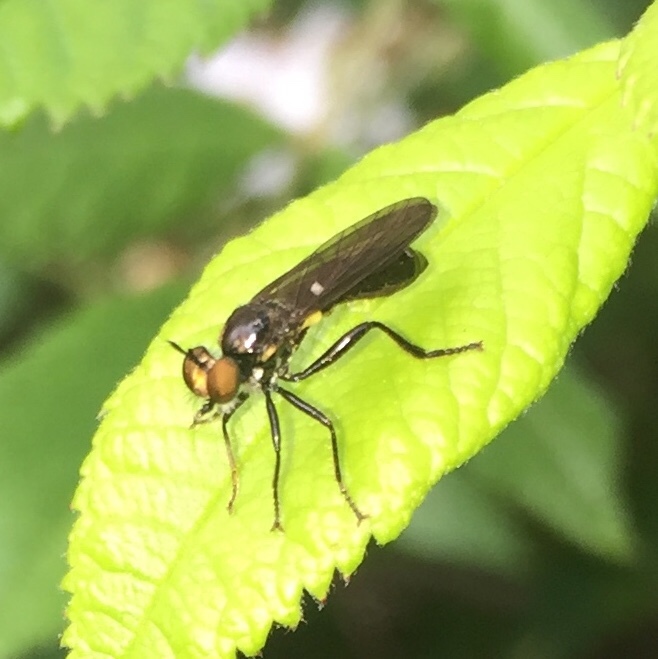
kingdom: Animalia
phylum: Arthropoda
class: Insecta
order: Diptera
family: Asilidae
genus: Eudioctria
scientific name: Eudioctria albius
